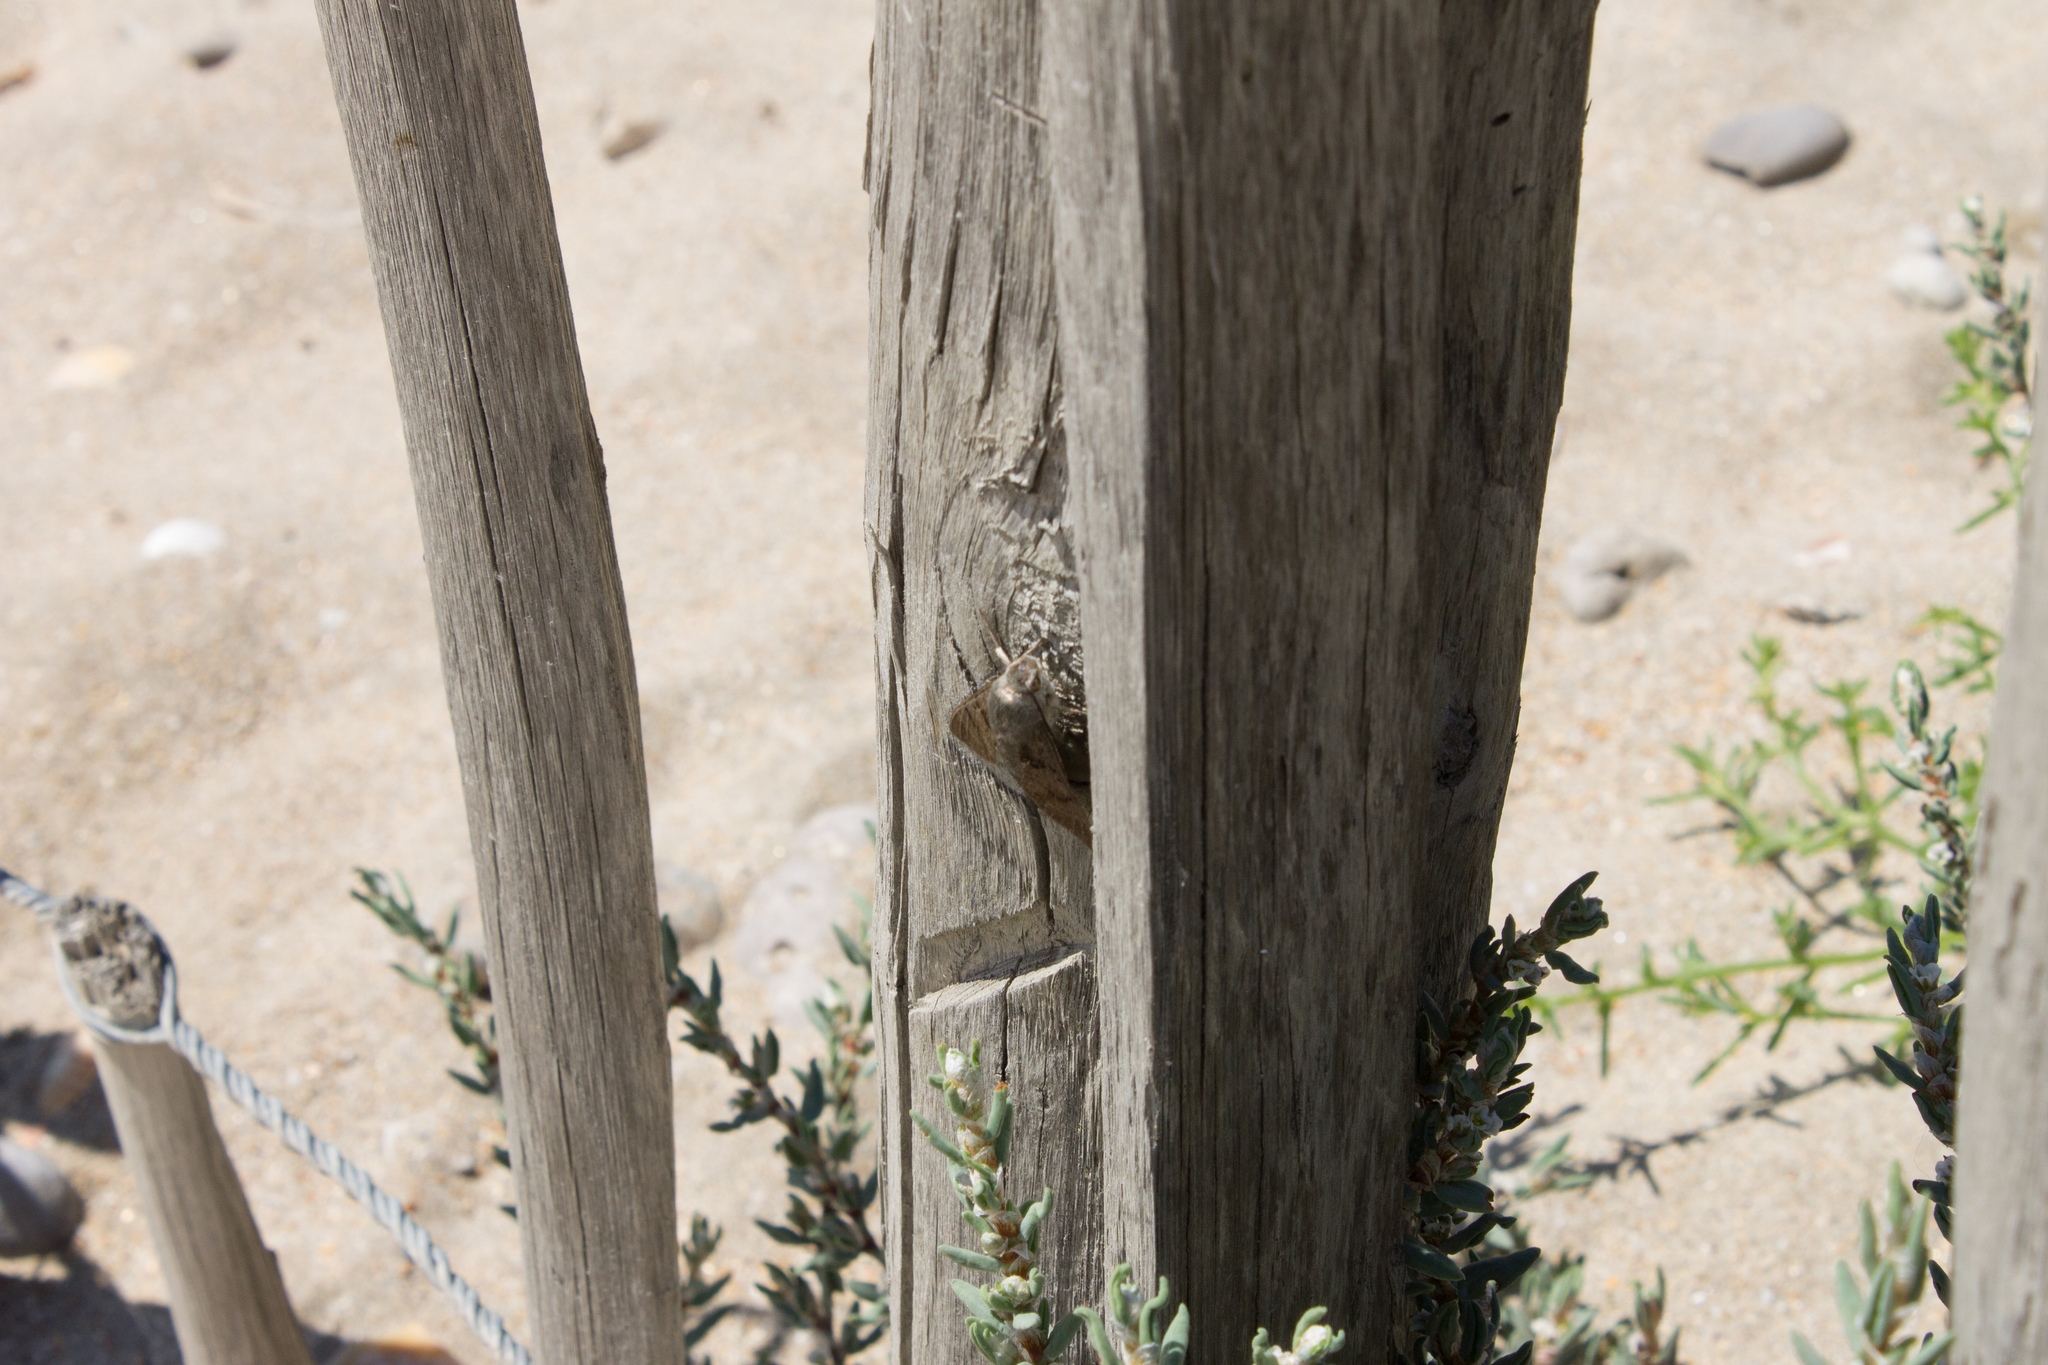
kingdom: Animalia
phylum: Arthropoda
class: Insecta
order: Lepidoptera
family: Sphingidae
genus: Macroglossum
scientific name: Macroglossum stellatarum
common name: Humming-bird hawk-moth
